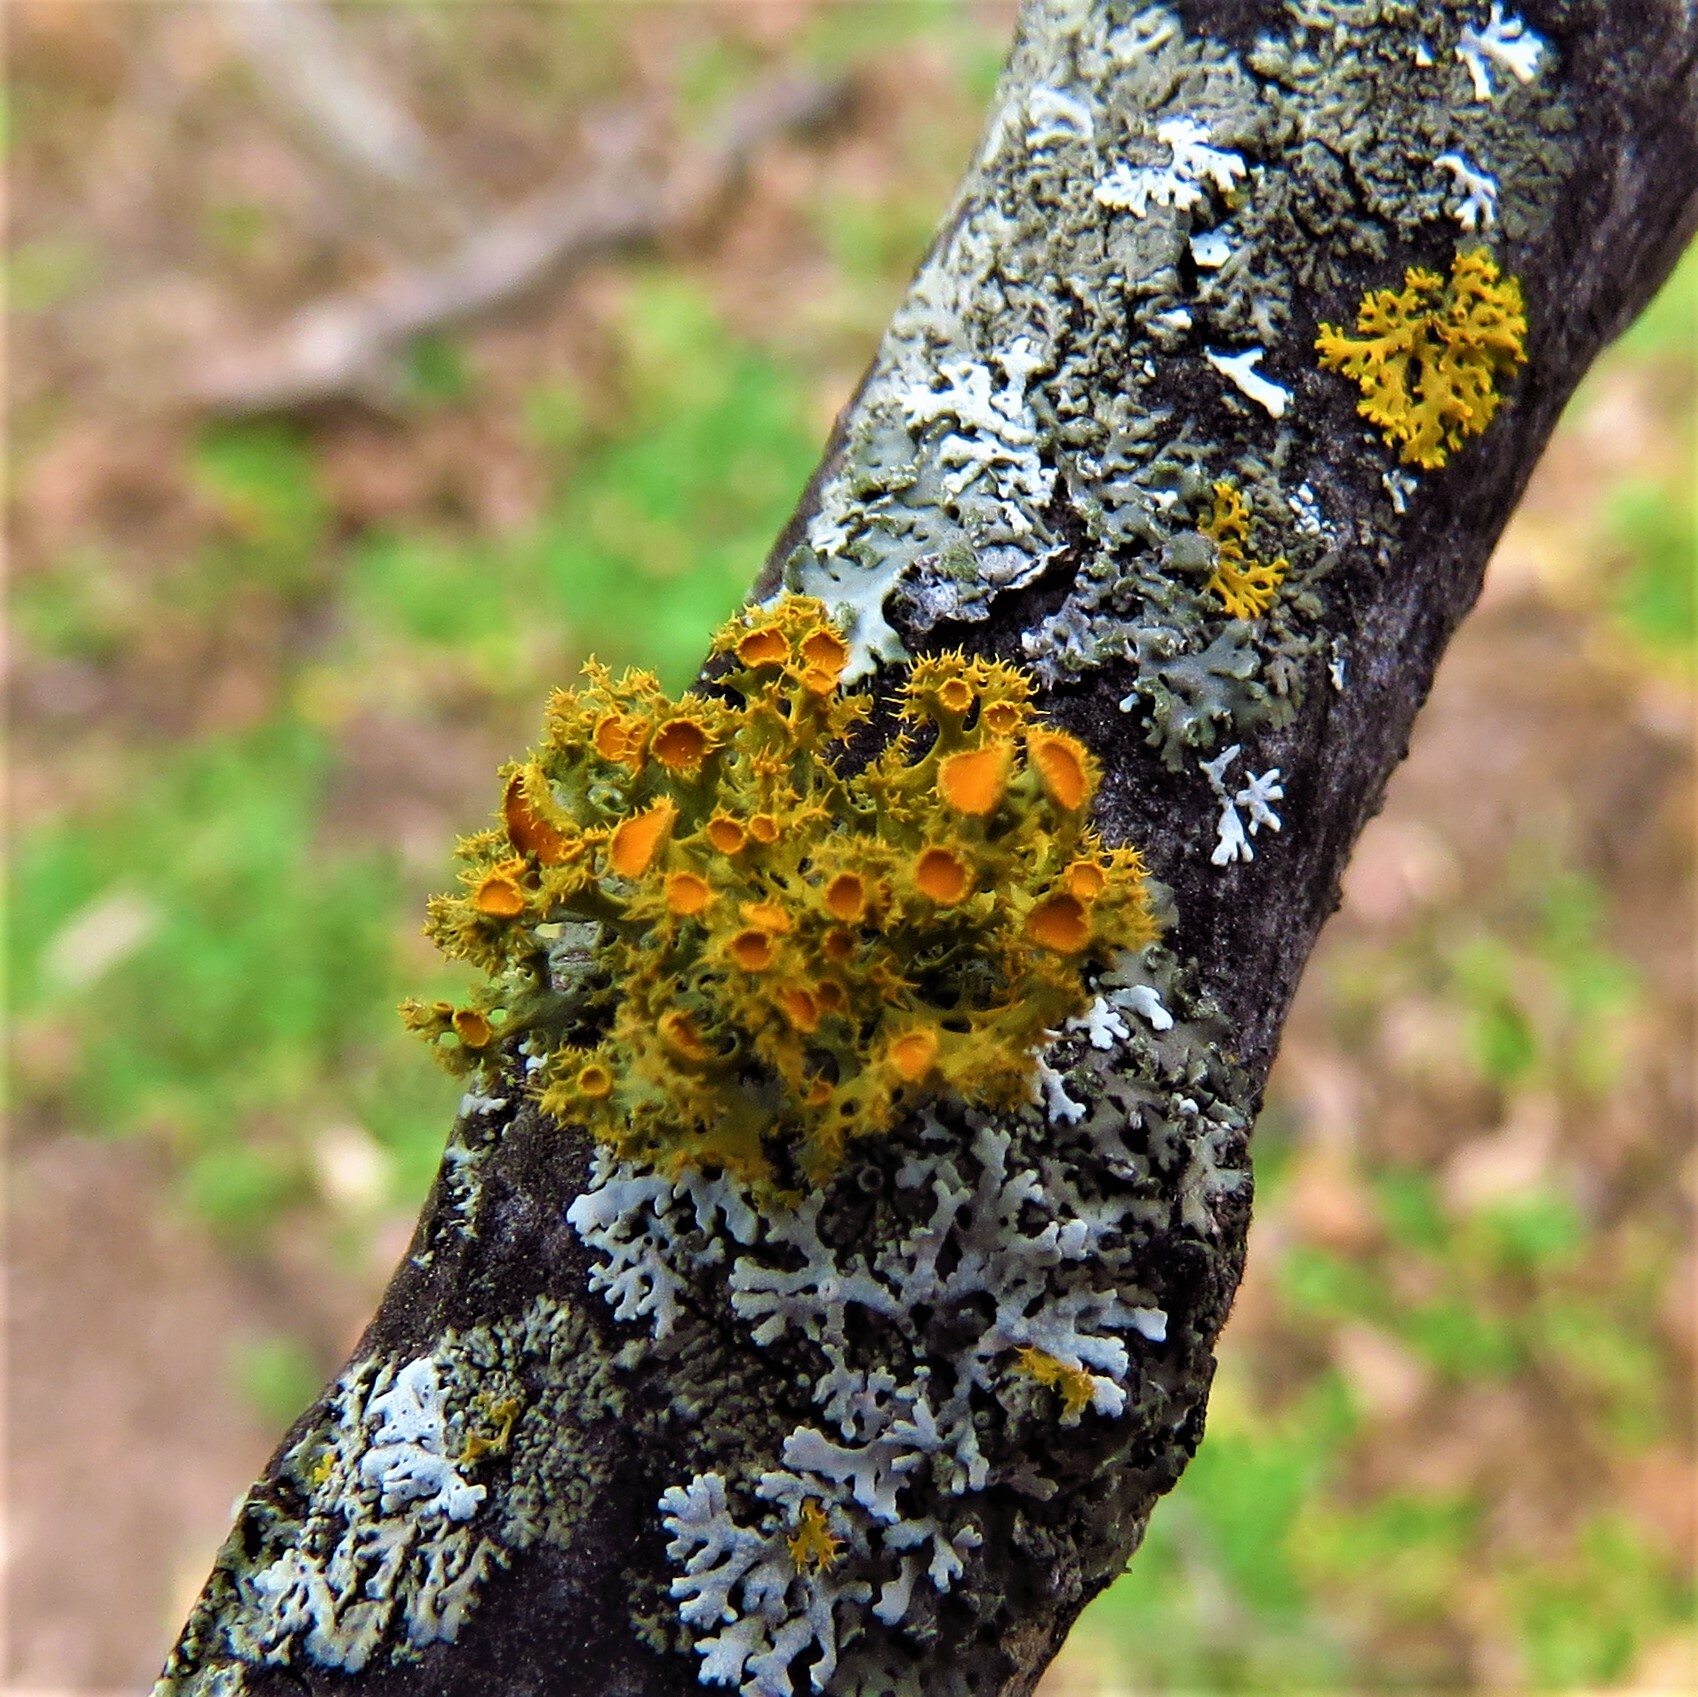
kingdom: Fungi
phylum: Ascomycota
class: Lecanoromycetes
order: Teloschistales
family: Teloschistaceae
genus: Niorma
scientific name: Niorma chrysophthalma
